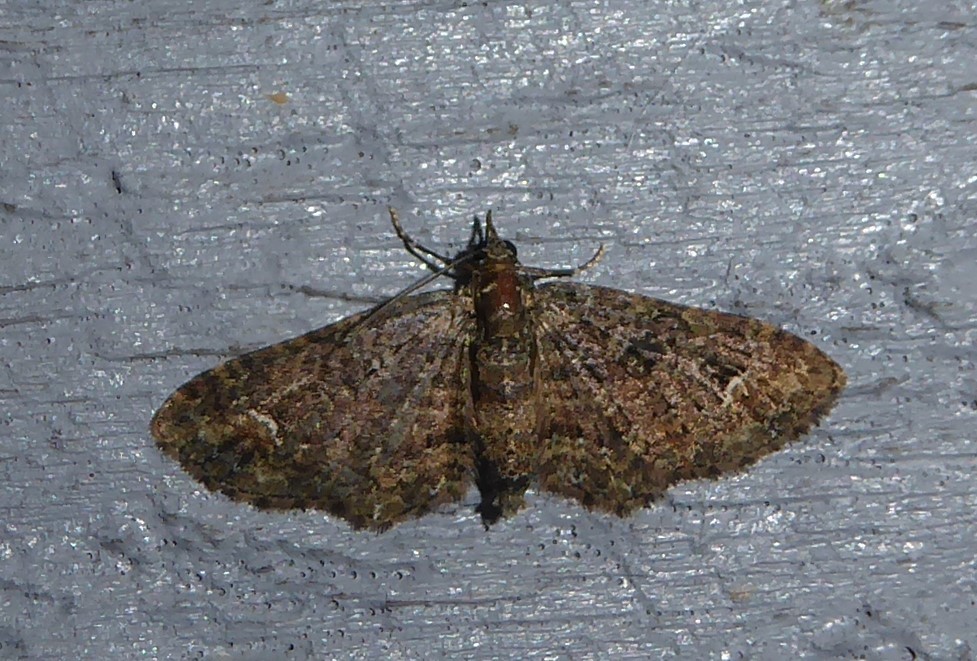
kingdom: Animalia
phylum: Arthropoda
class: Insecta
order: Lepidoptera
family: Geometridae
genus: Pasiphilodes
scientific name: Pasiphilodes testulata
